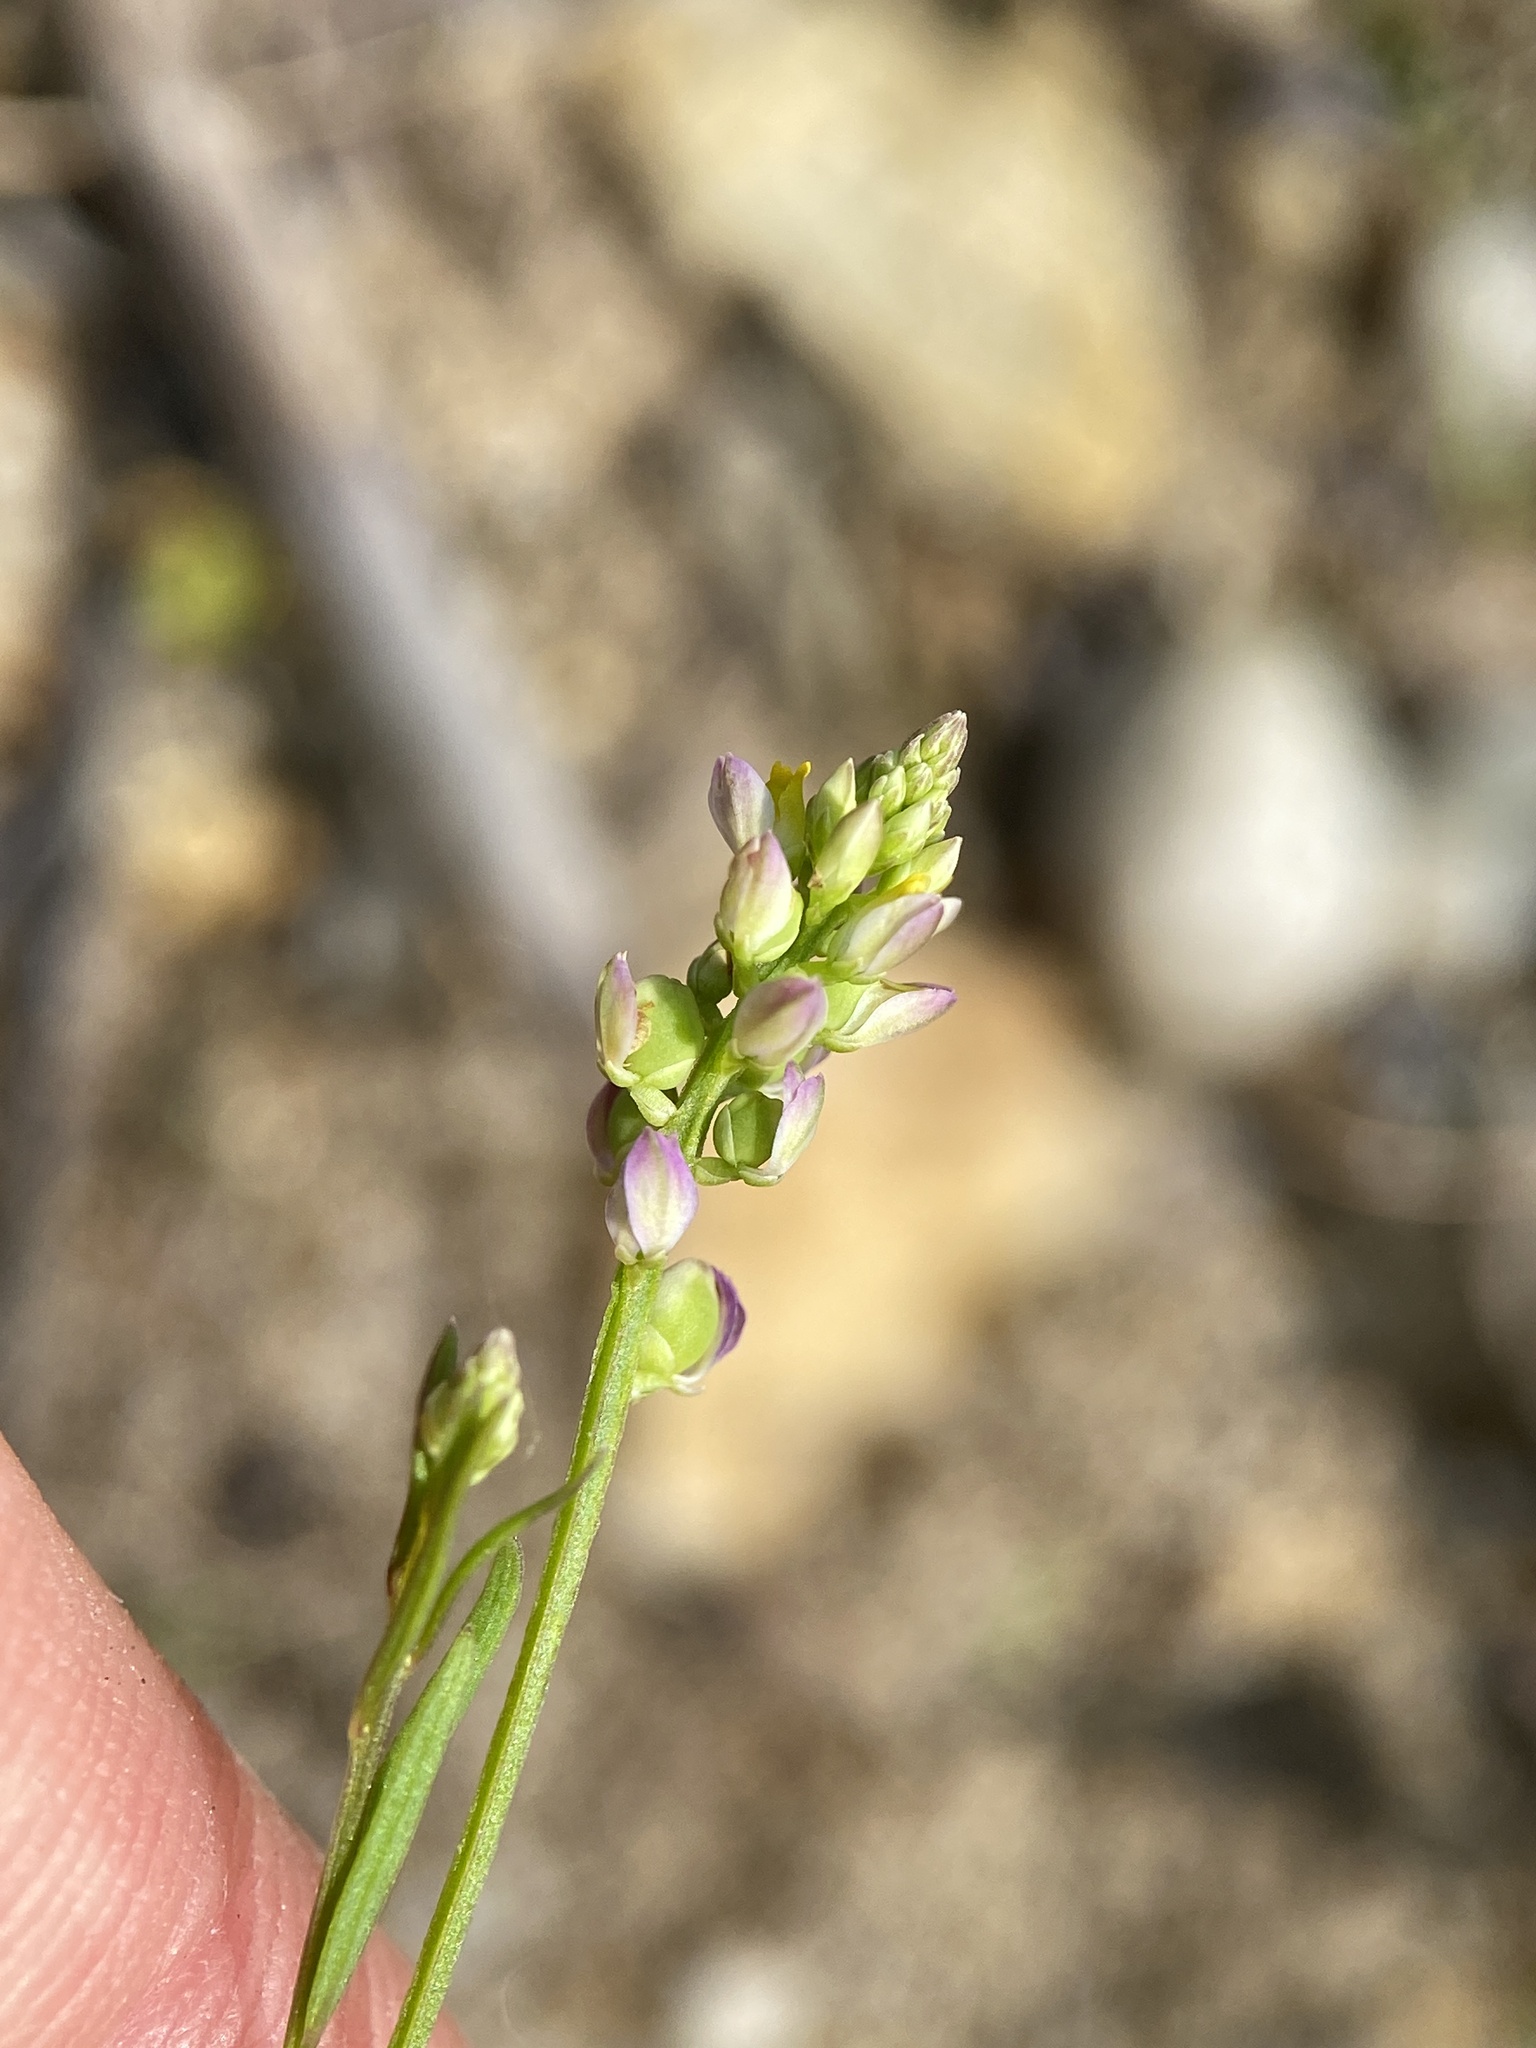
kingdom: Plantae
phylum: Tracheophyta
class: Magnoliopsida
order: Fabales
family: Polygalaceae
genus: Polygala
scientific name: Polygala nuttallii
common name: Nuttall's milkwort
